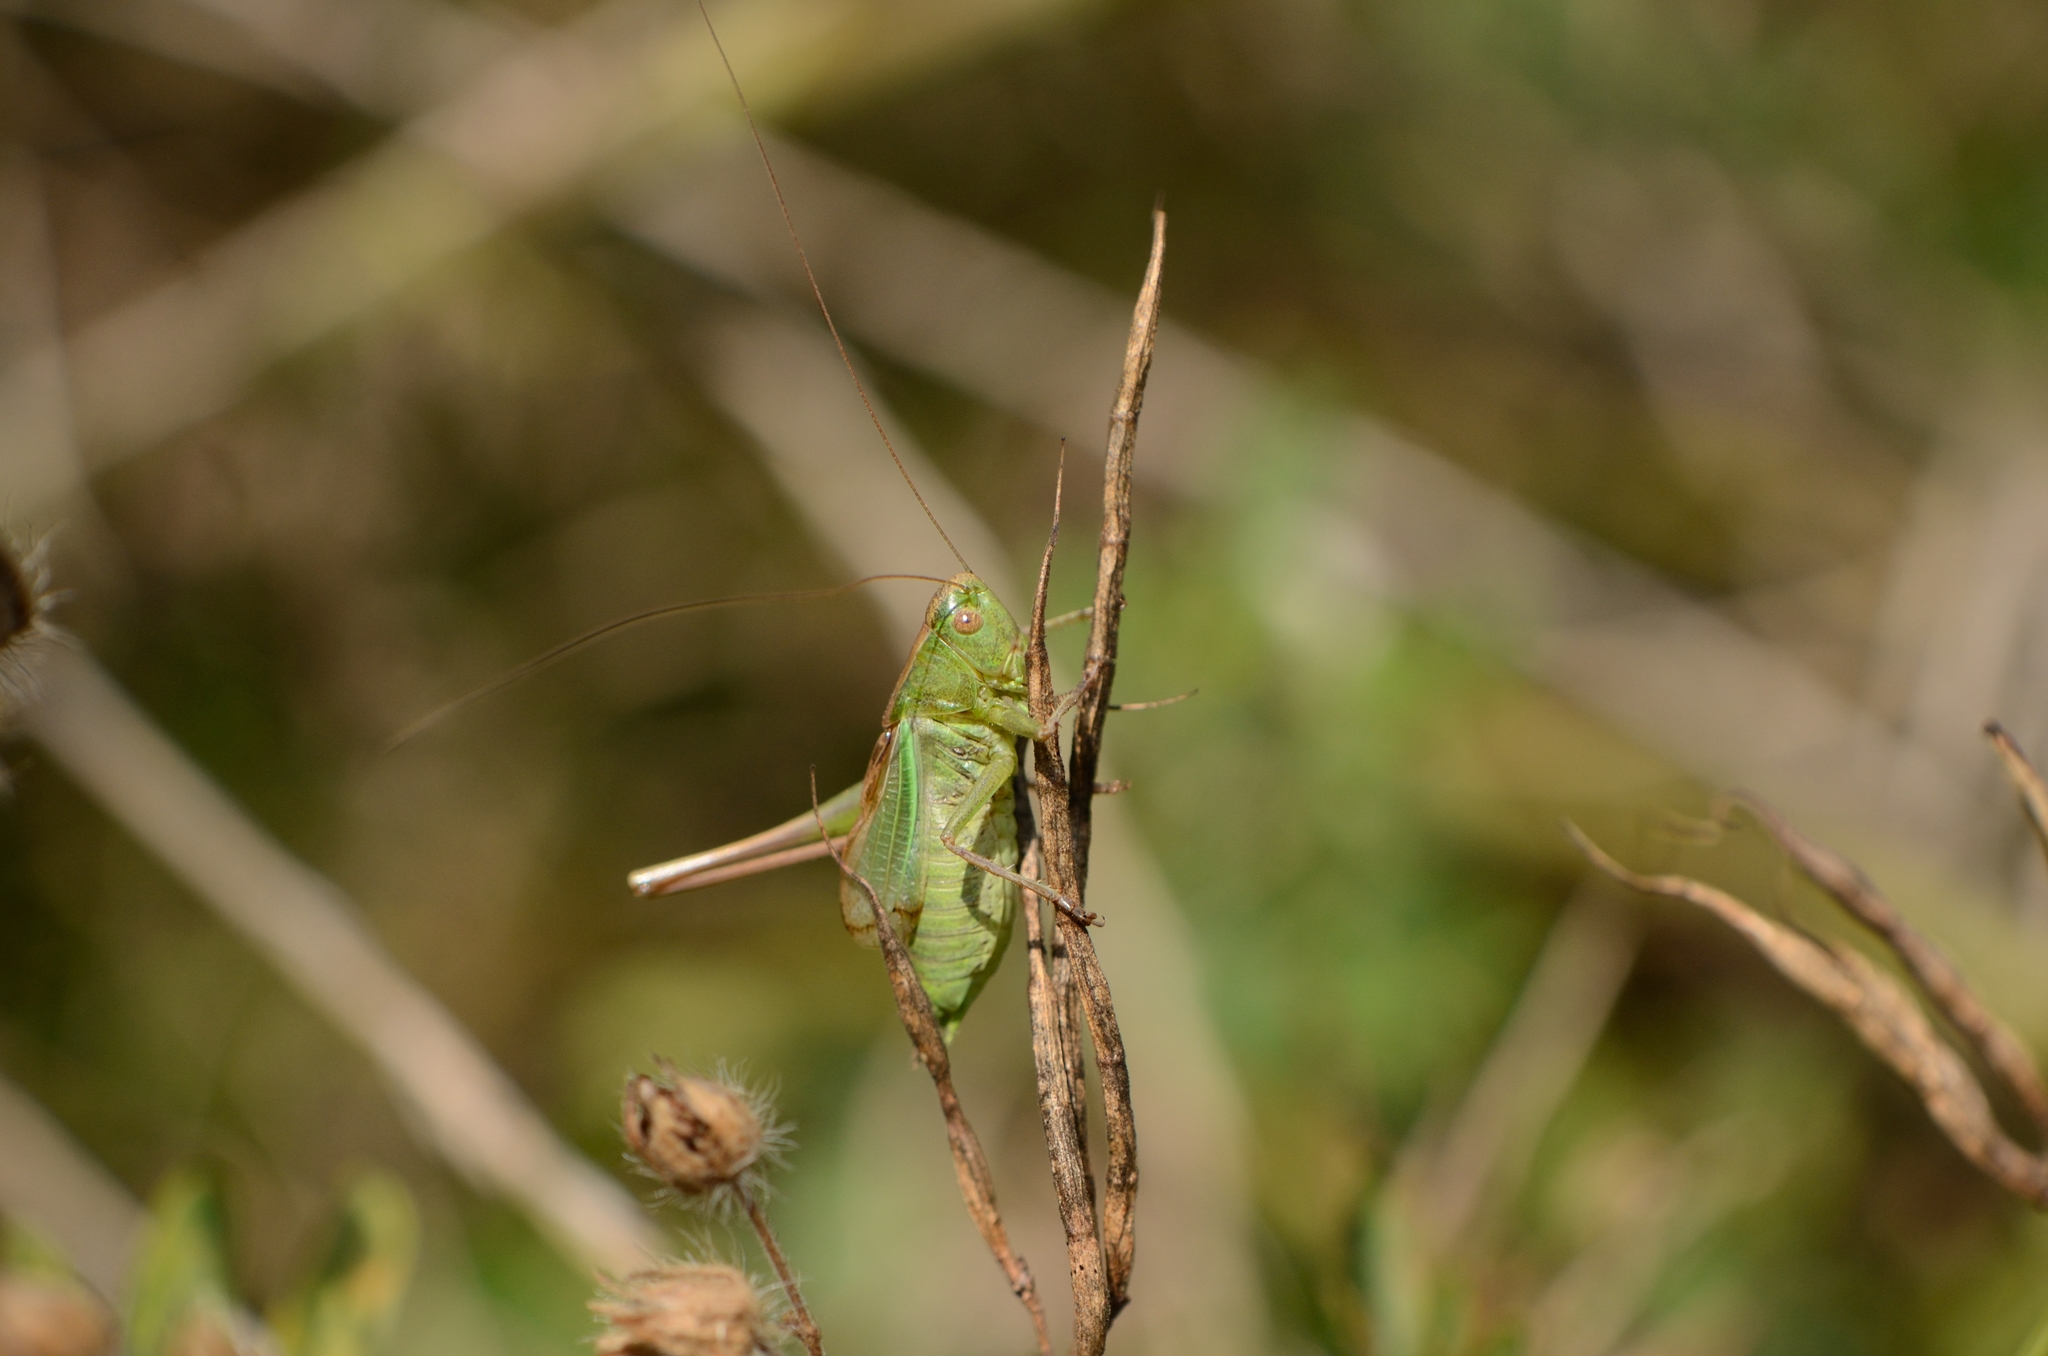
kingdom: Animalia
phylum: Arthropoda
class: Insecta
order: Orthoptera
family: Tettigoniidae
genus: Bicolorana
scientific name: Bicolorana bicolor
